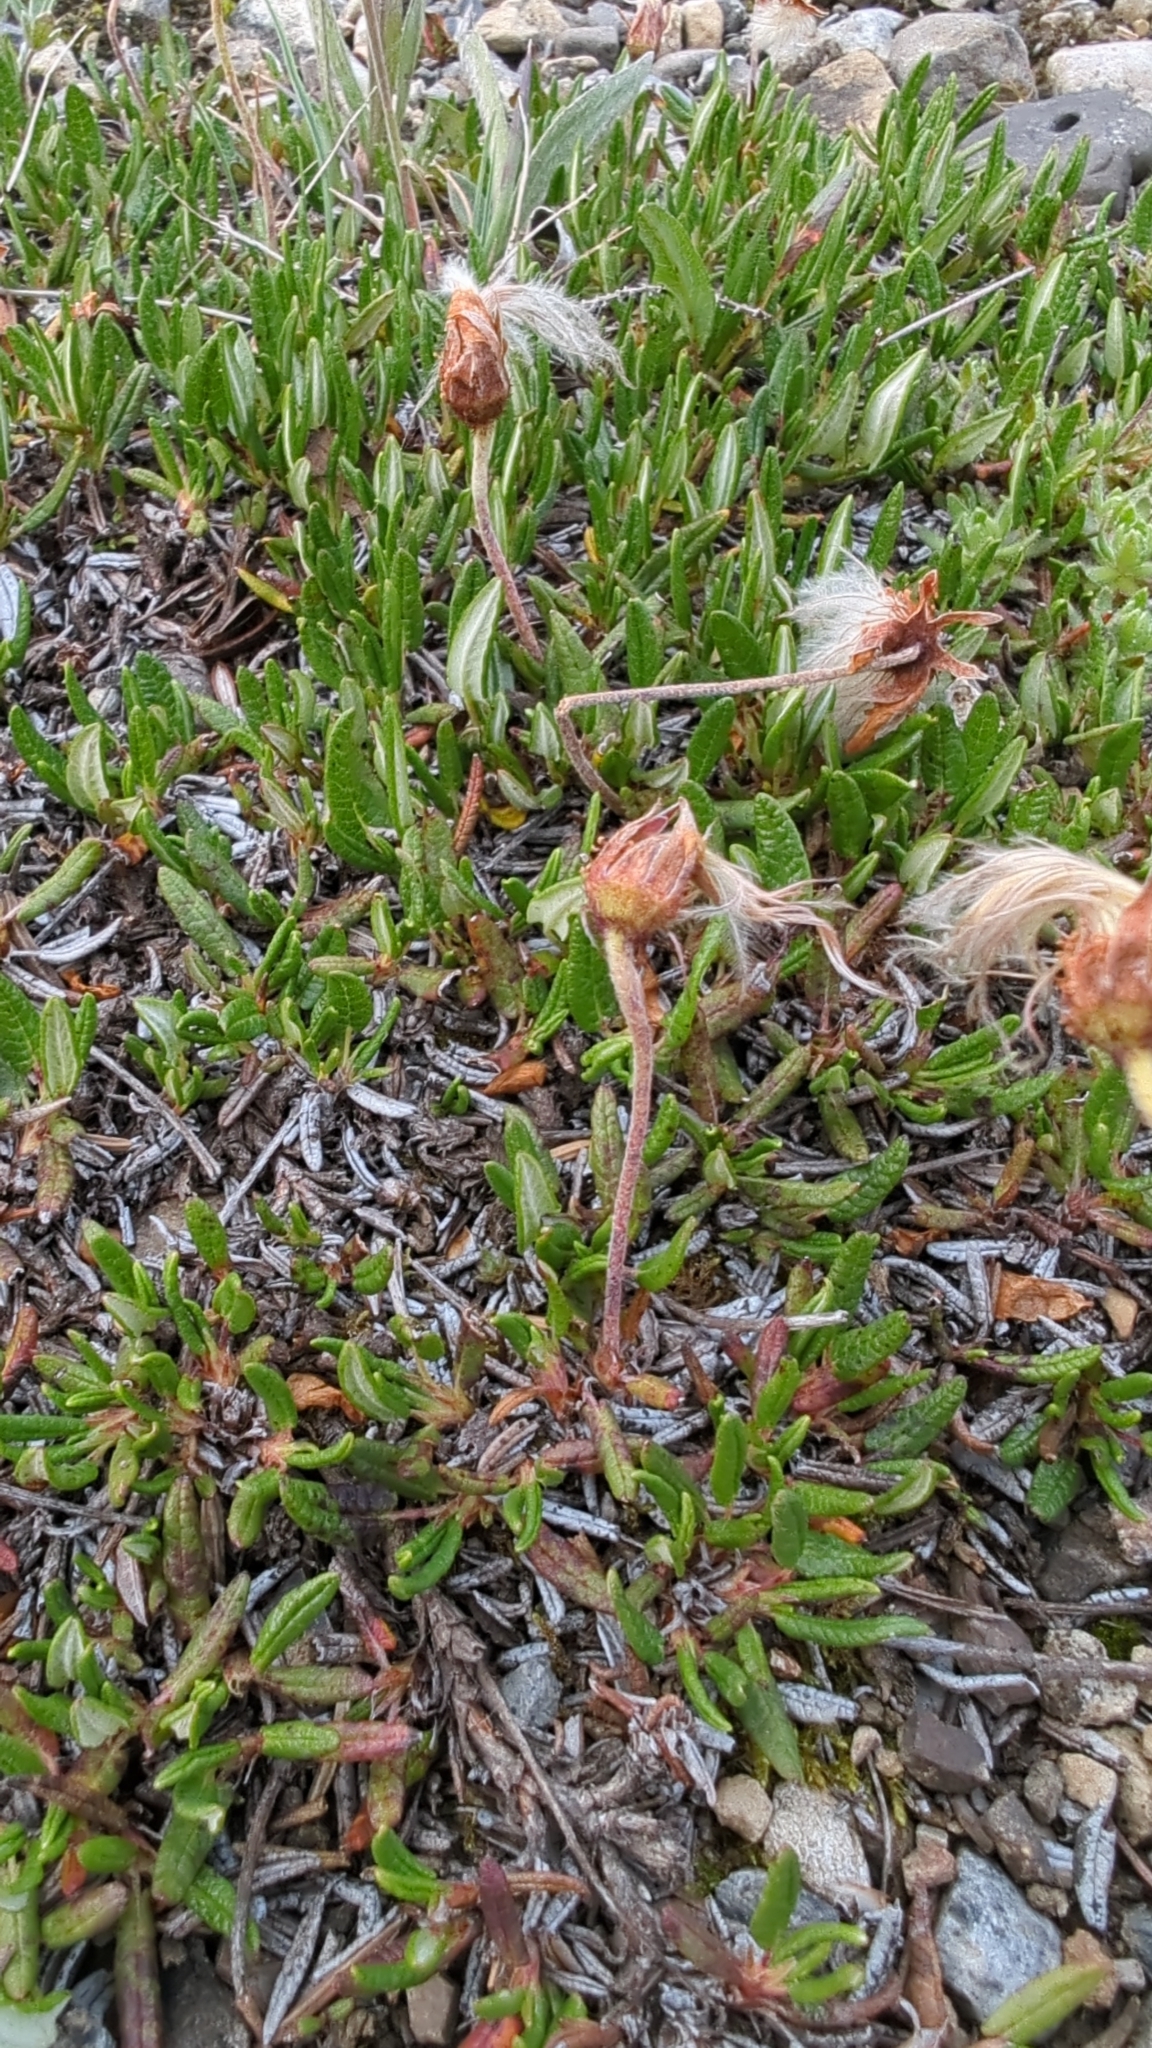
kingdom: Plantae
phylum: Tracheophyta
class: Magnoliopsida
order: Rosales
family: Rosaceae
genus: Dryas
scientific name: Dryas integrifolia
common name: Entire-leaved mountain avens
